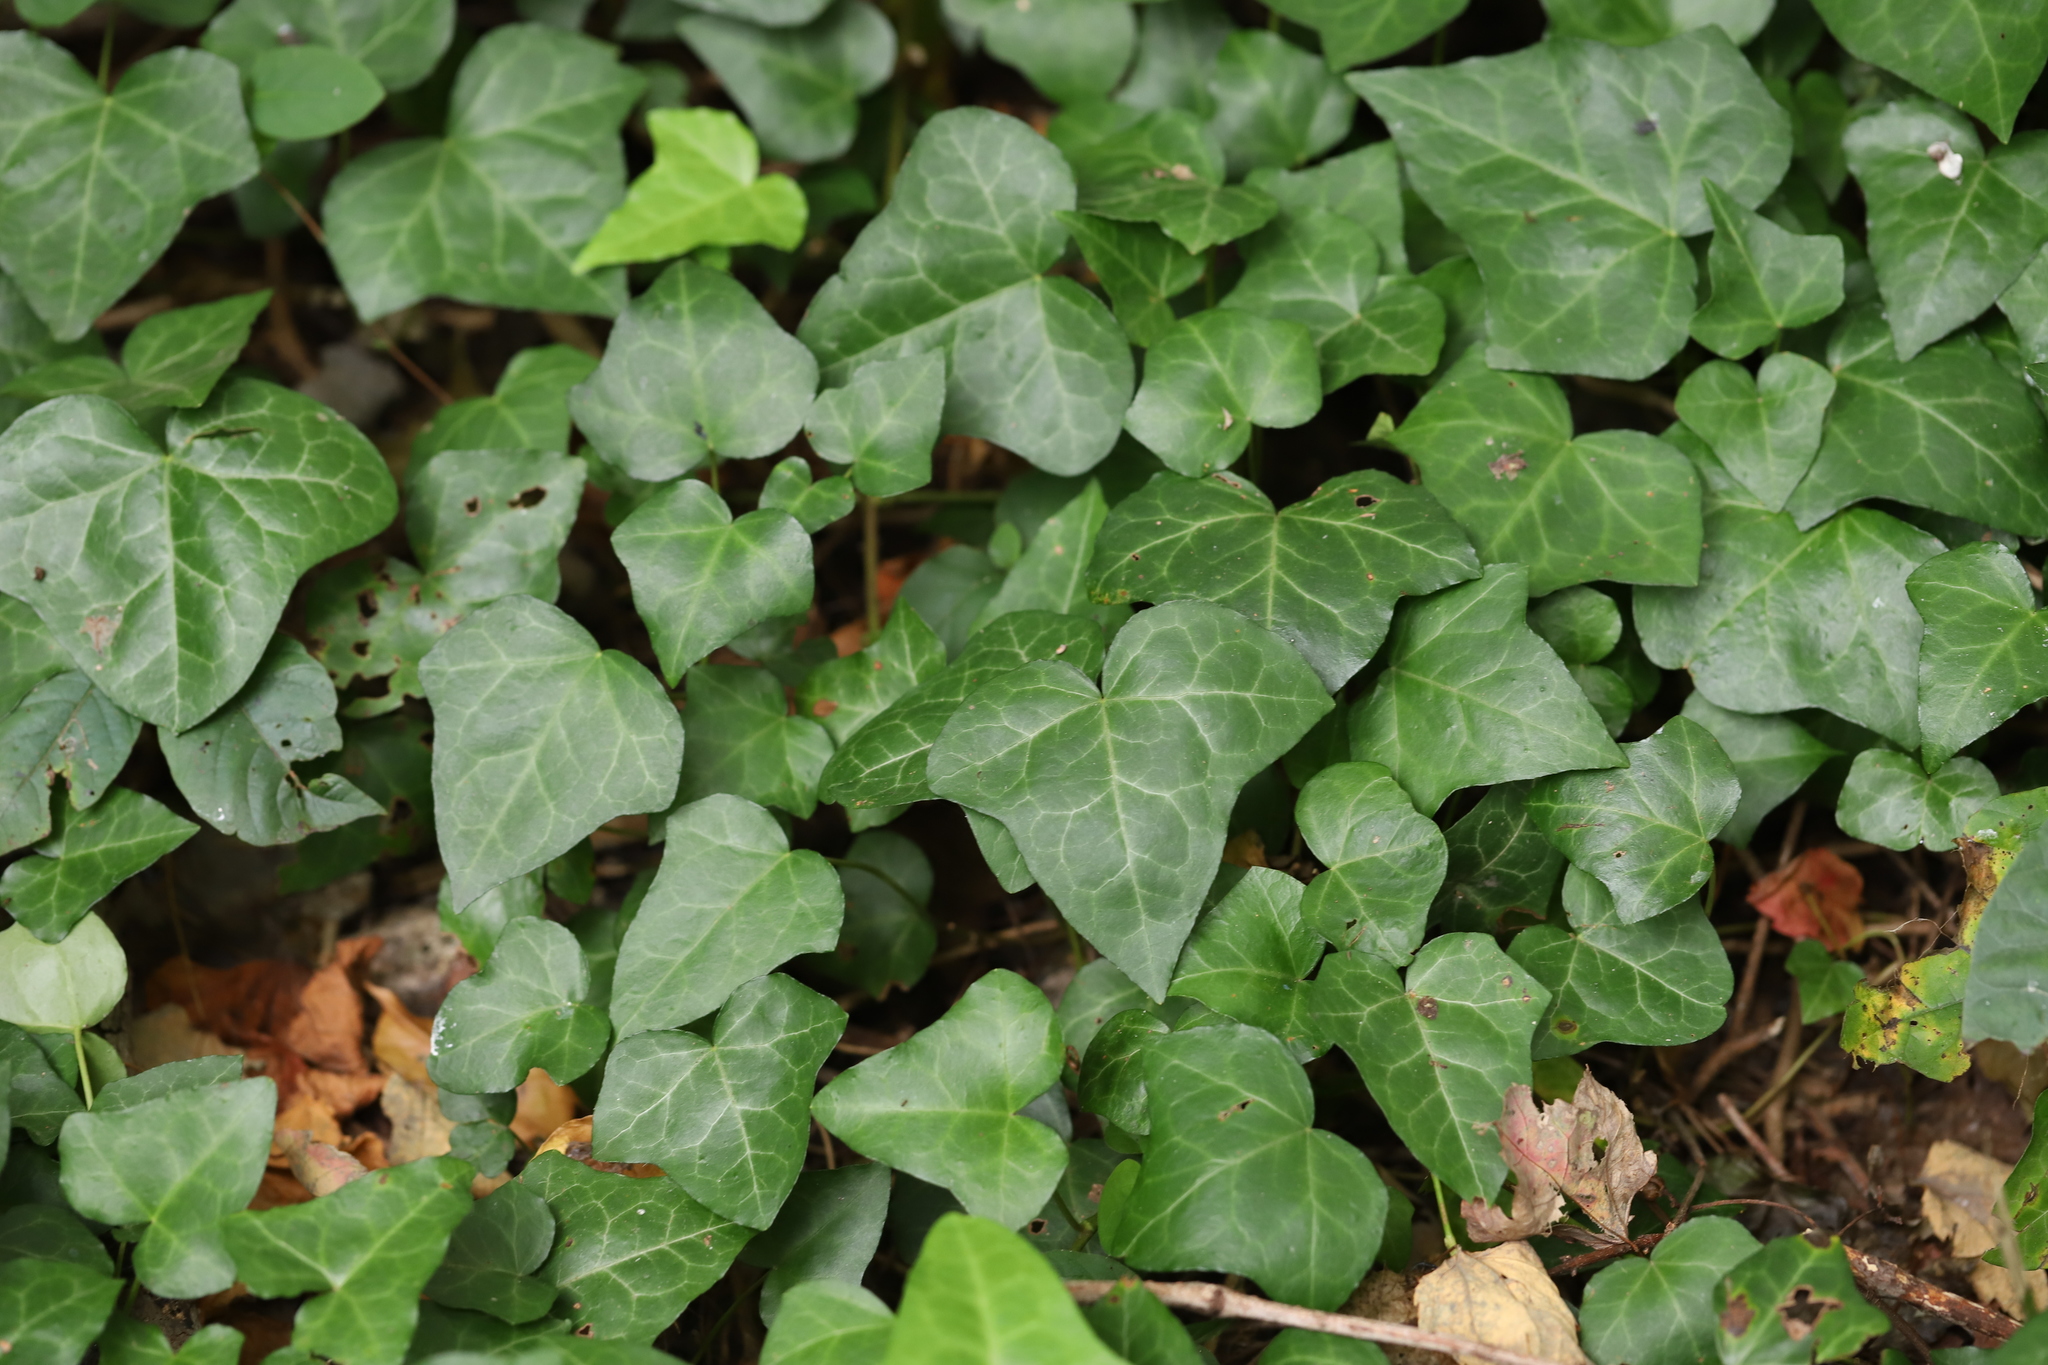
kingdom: Plantae
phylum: Tracheophyta
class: Magnoliopsida
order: Apiales
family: Araliaceae
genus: Hedera
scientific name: Hedera helix
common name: Ivy
